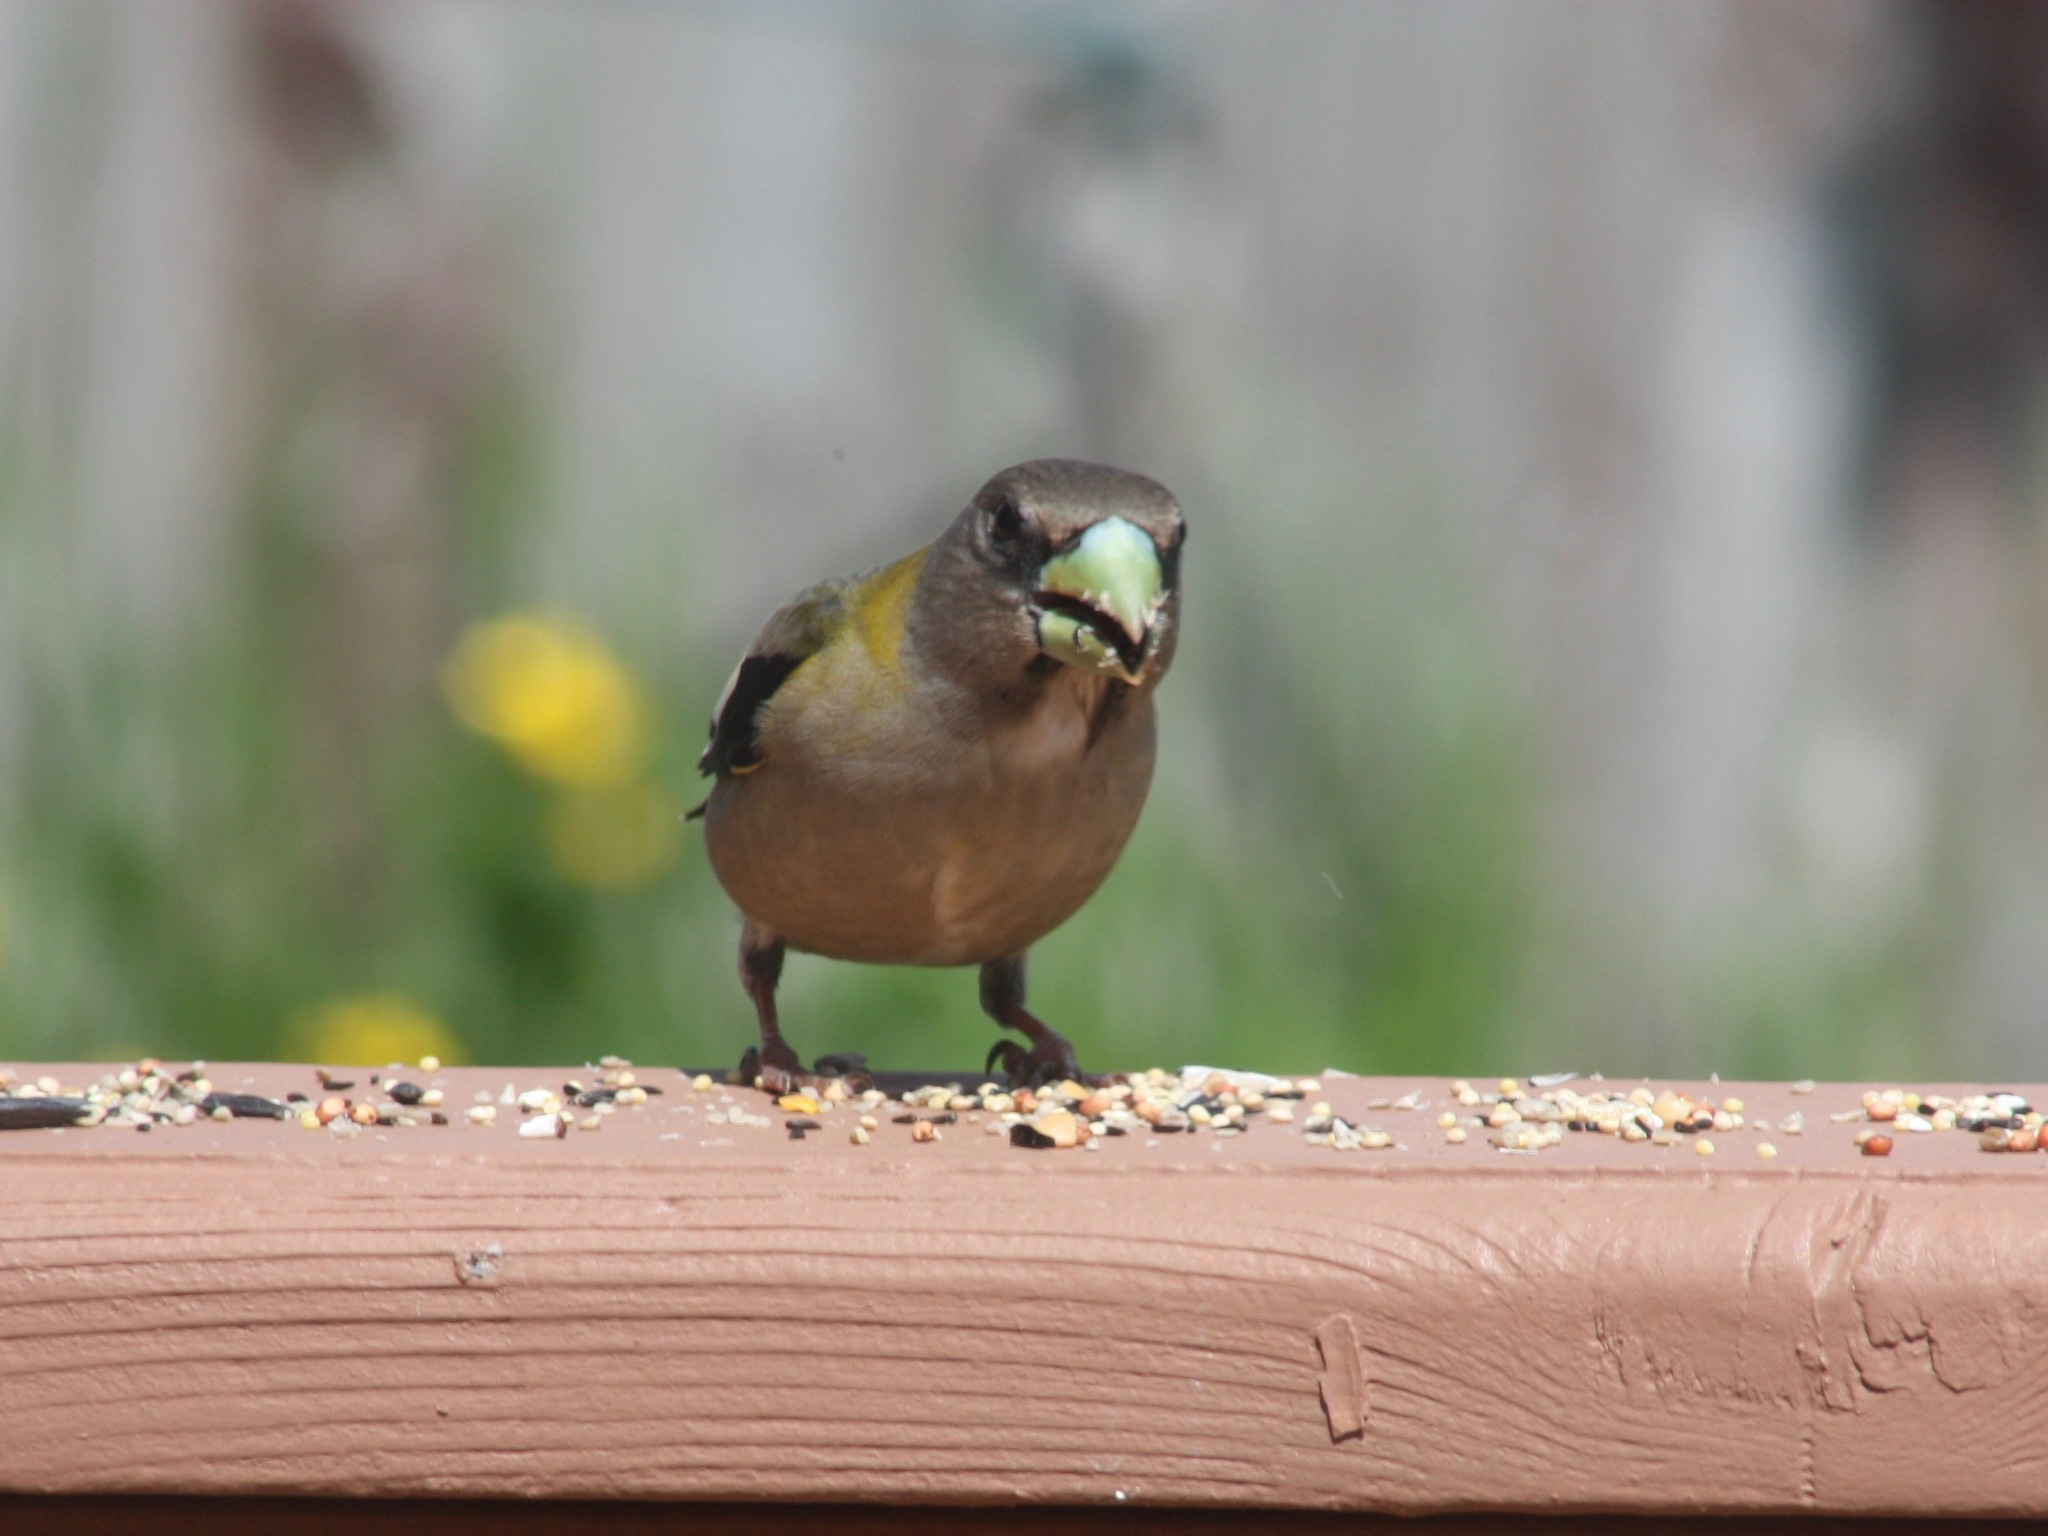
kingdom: Animalia
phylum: Chordata
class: Aves
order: Passeriformes
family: Fringillidae
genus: Hesperiphona
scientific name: Hesperiphona vespertina
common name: Evening grosbeak
